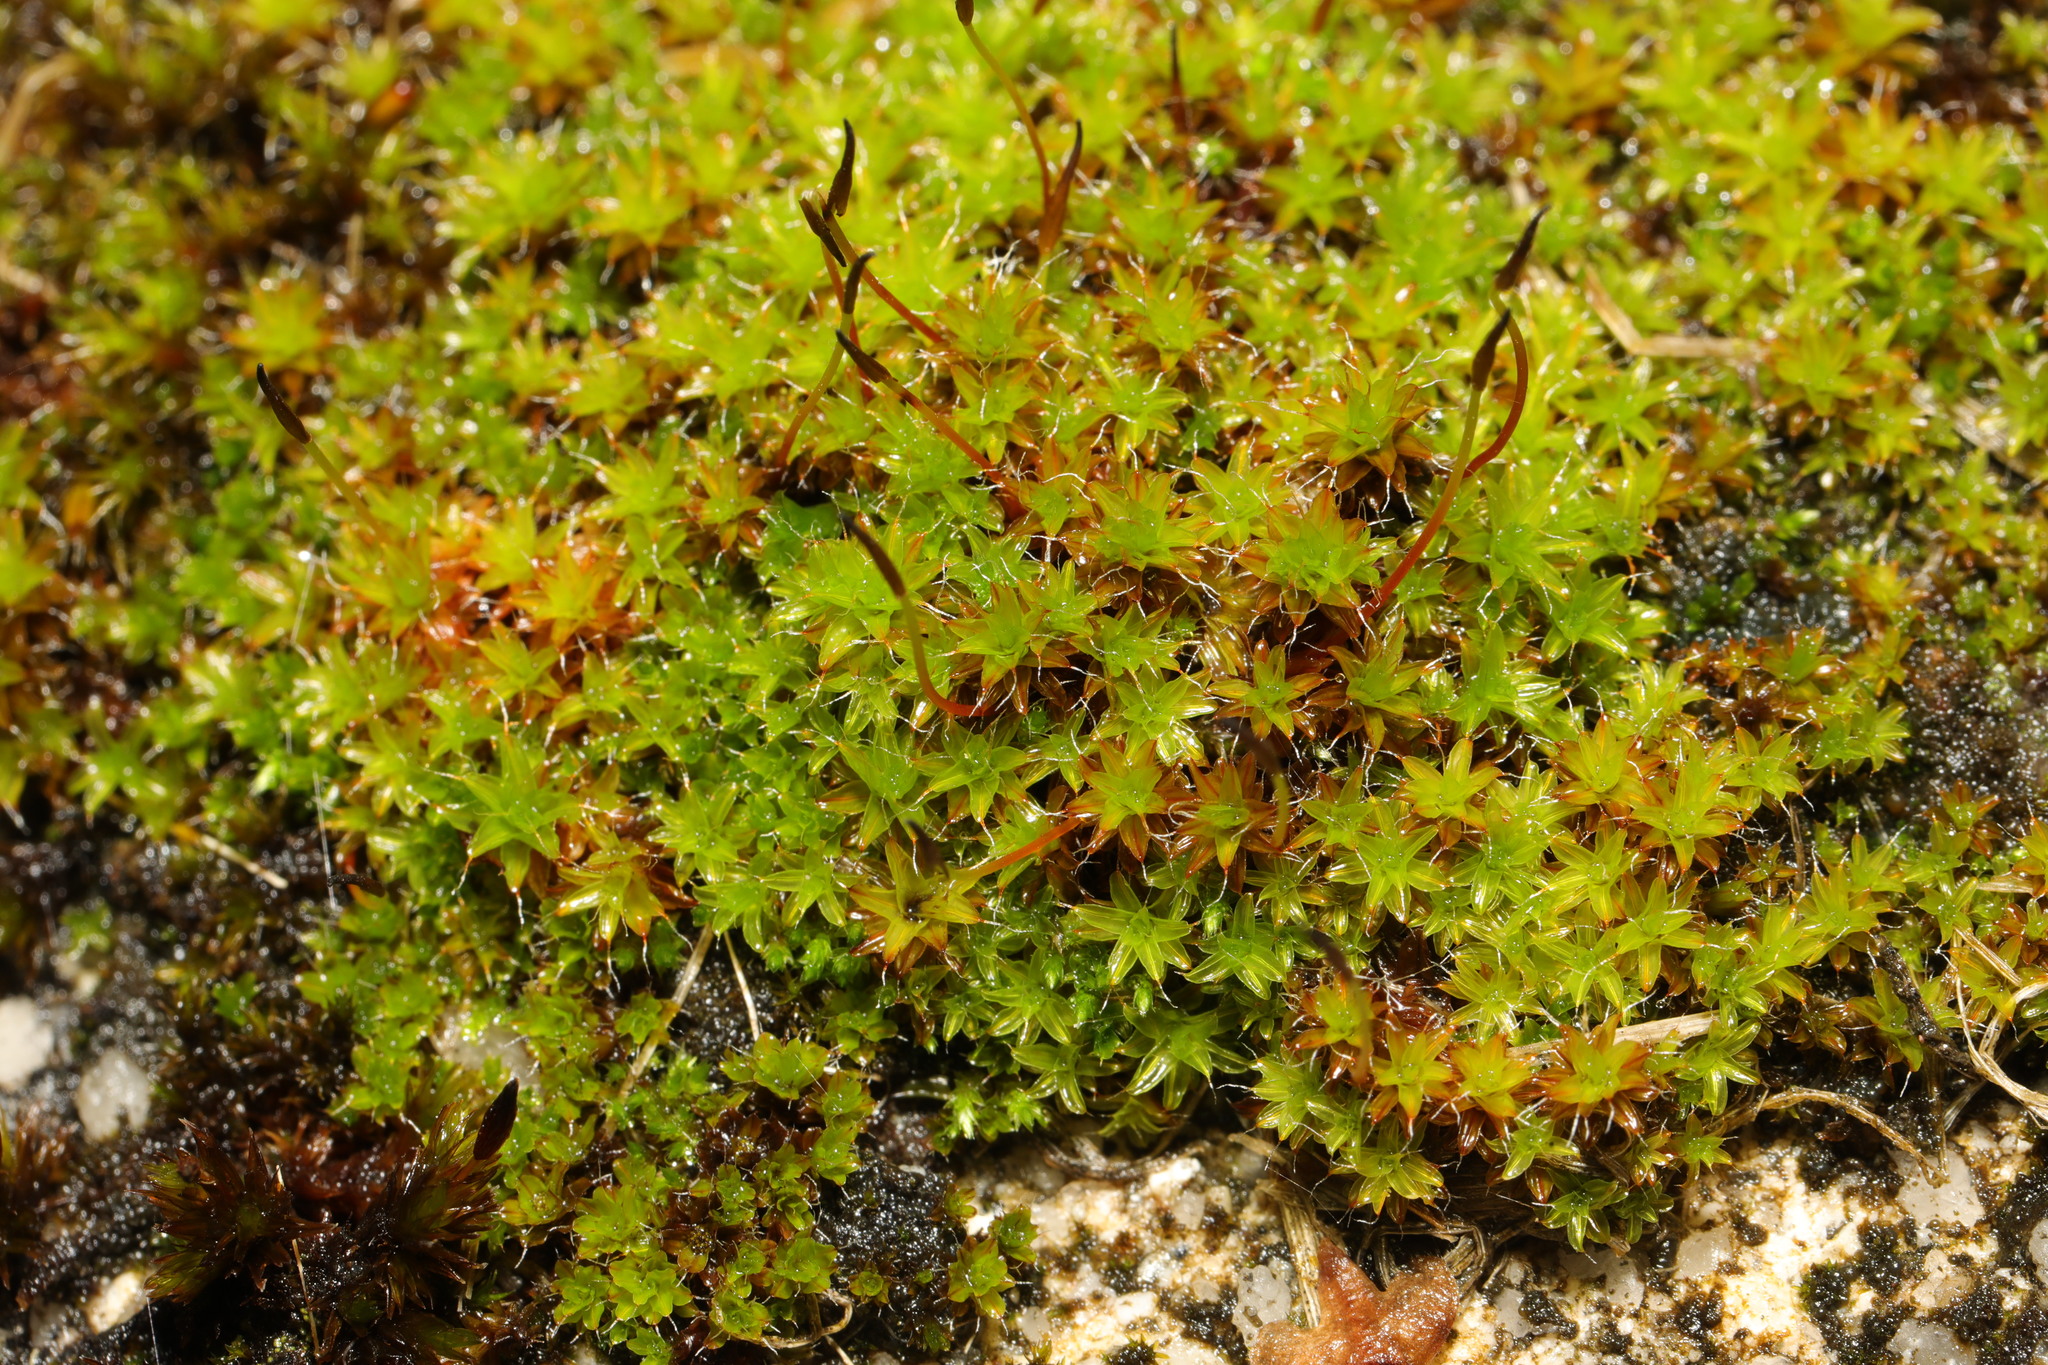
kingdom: Plantae
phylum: Bryophyta
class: Bryopsida
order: Pottiales
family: Pottiaceae
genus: Syntrichia
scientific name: Syntrichia ruralis
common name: Sidewalk screw moss
